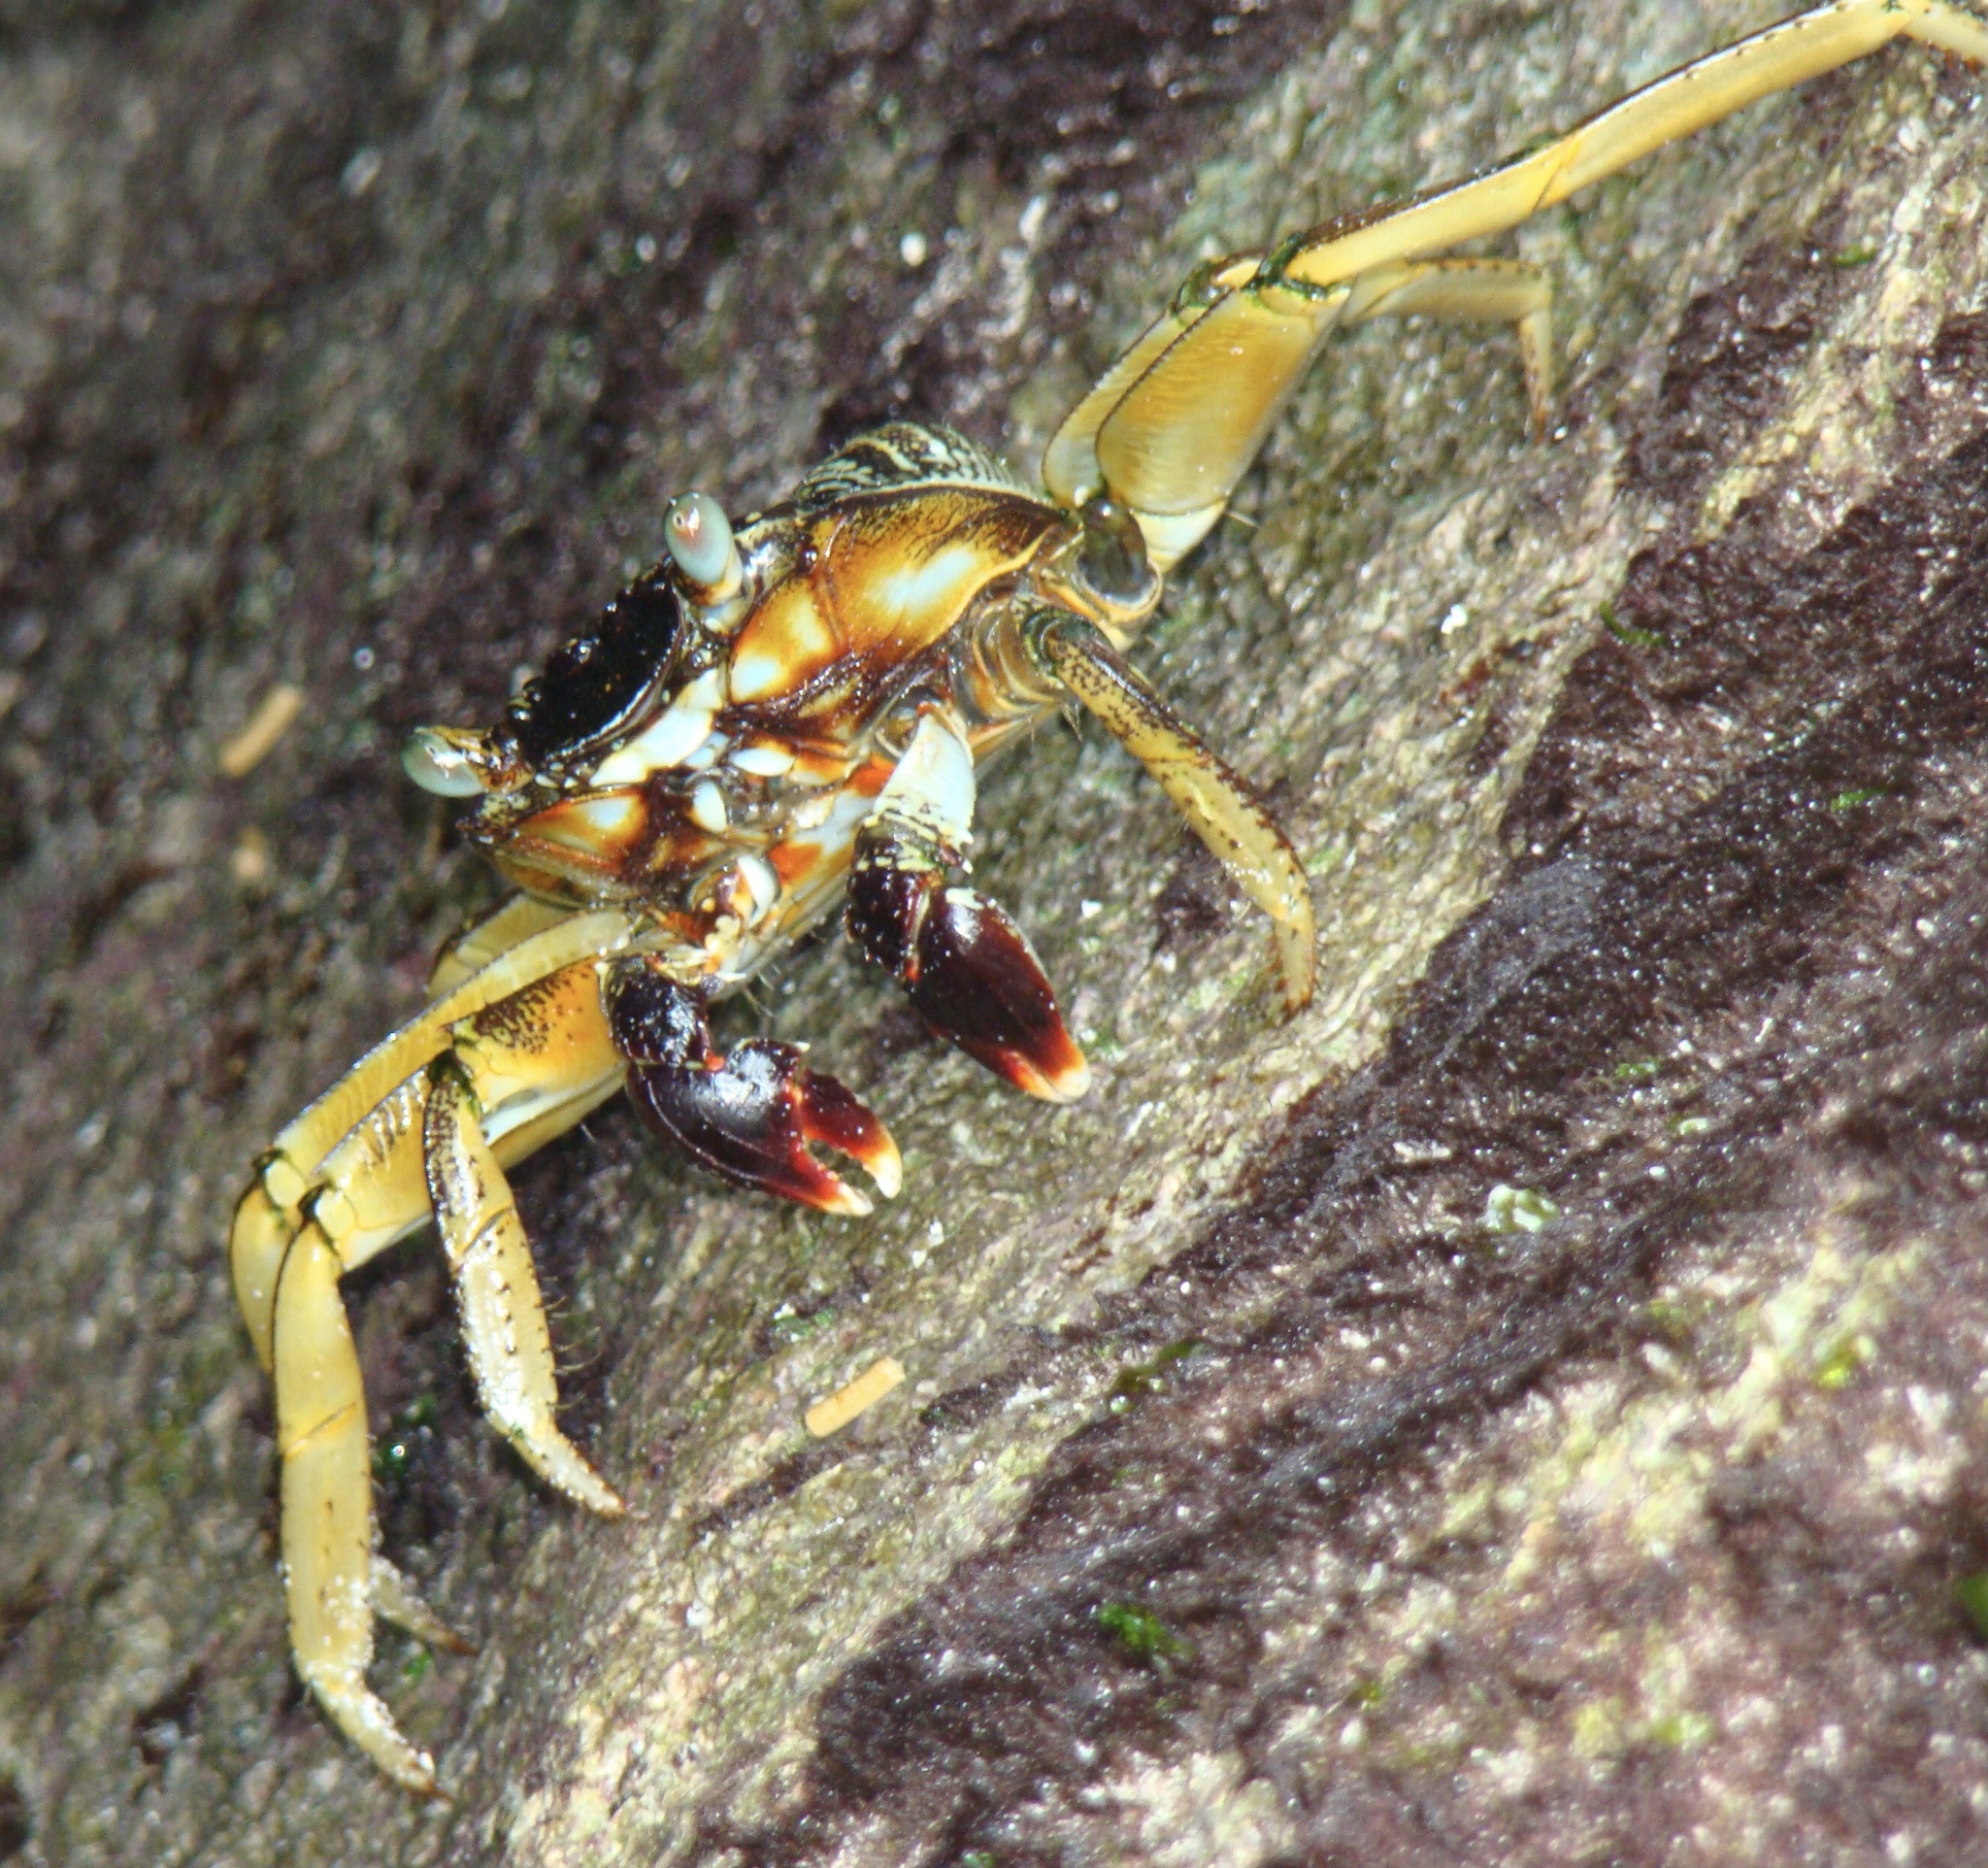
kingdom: Animalia
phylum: Arthropoda
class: Malacostraca
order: Decapoda
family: Grapsidae
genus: Grapsus
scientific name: Grapsus tenuicrustatus
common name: Natal lightfoot crab
